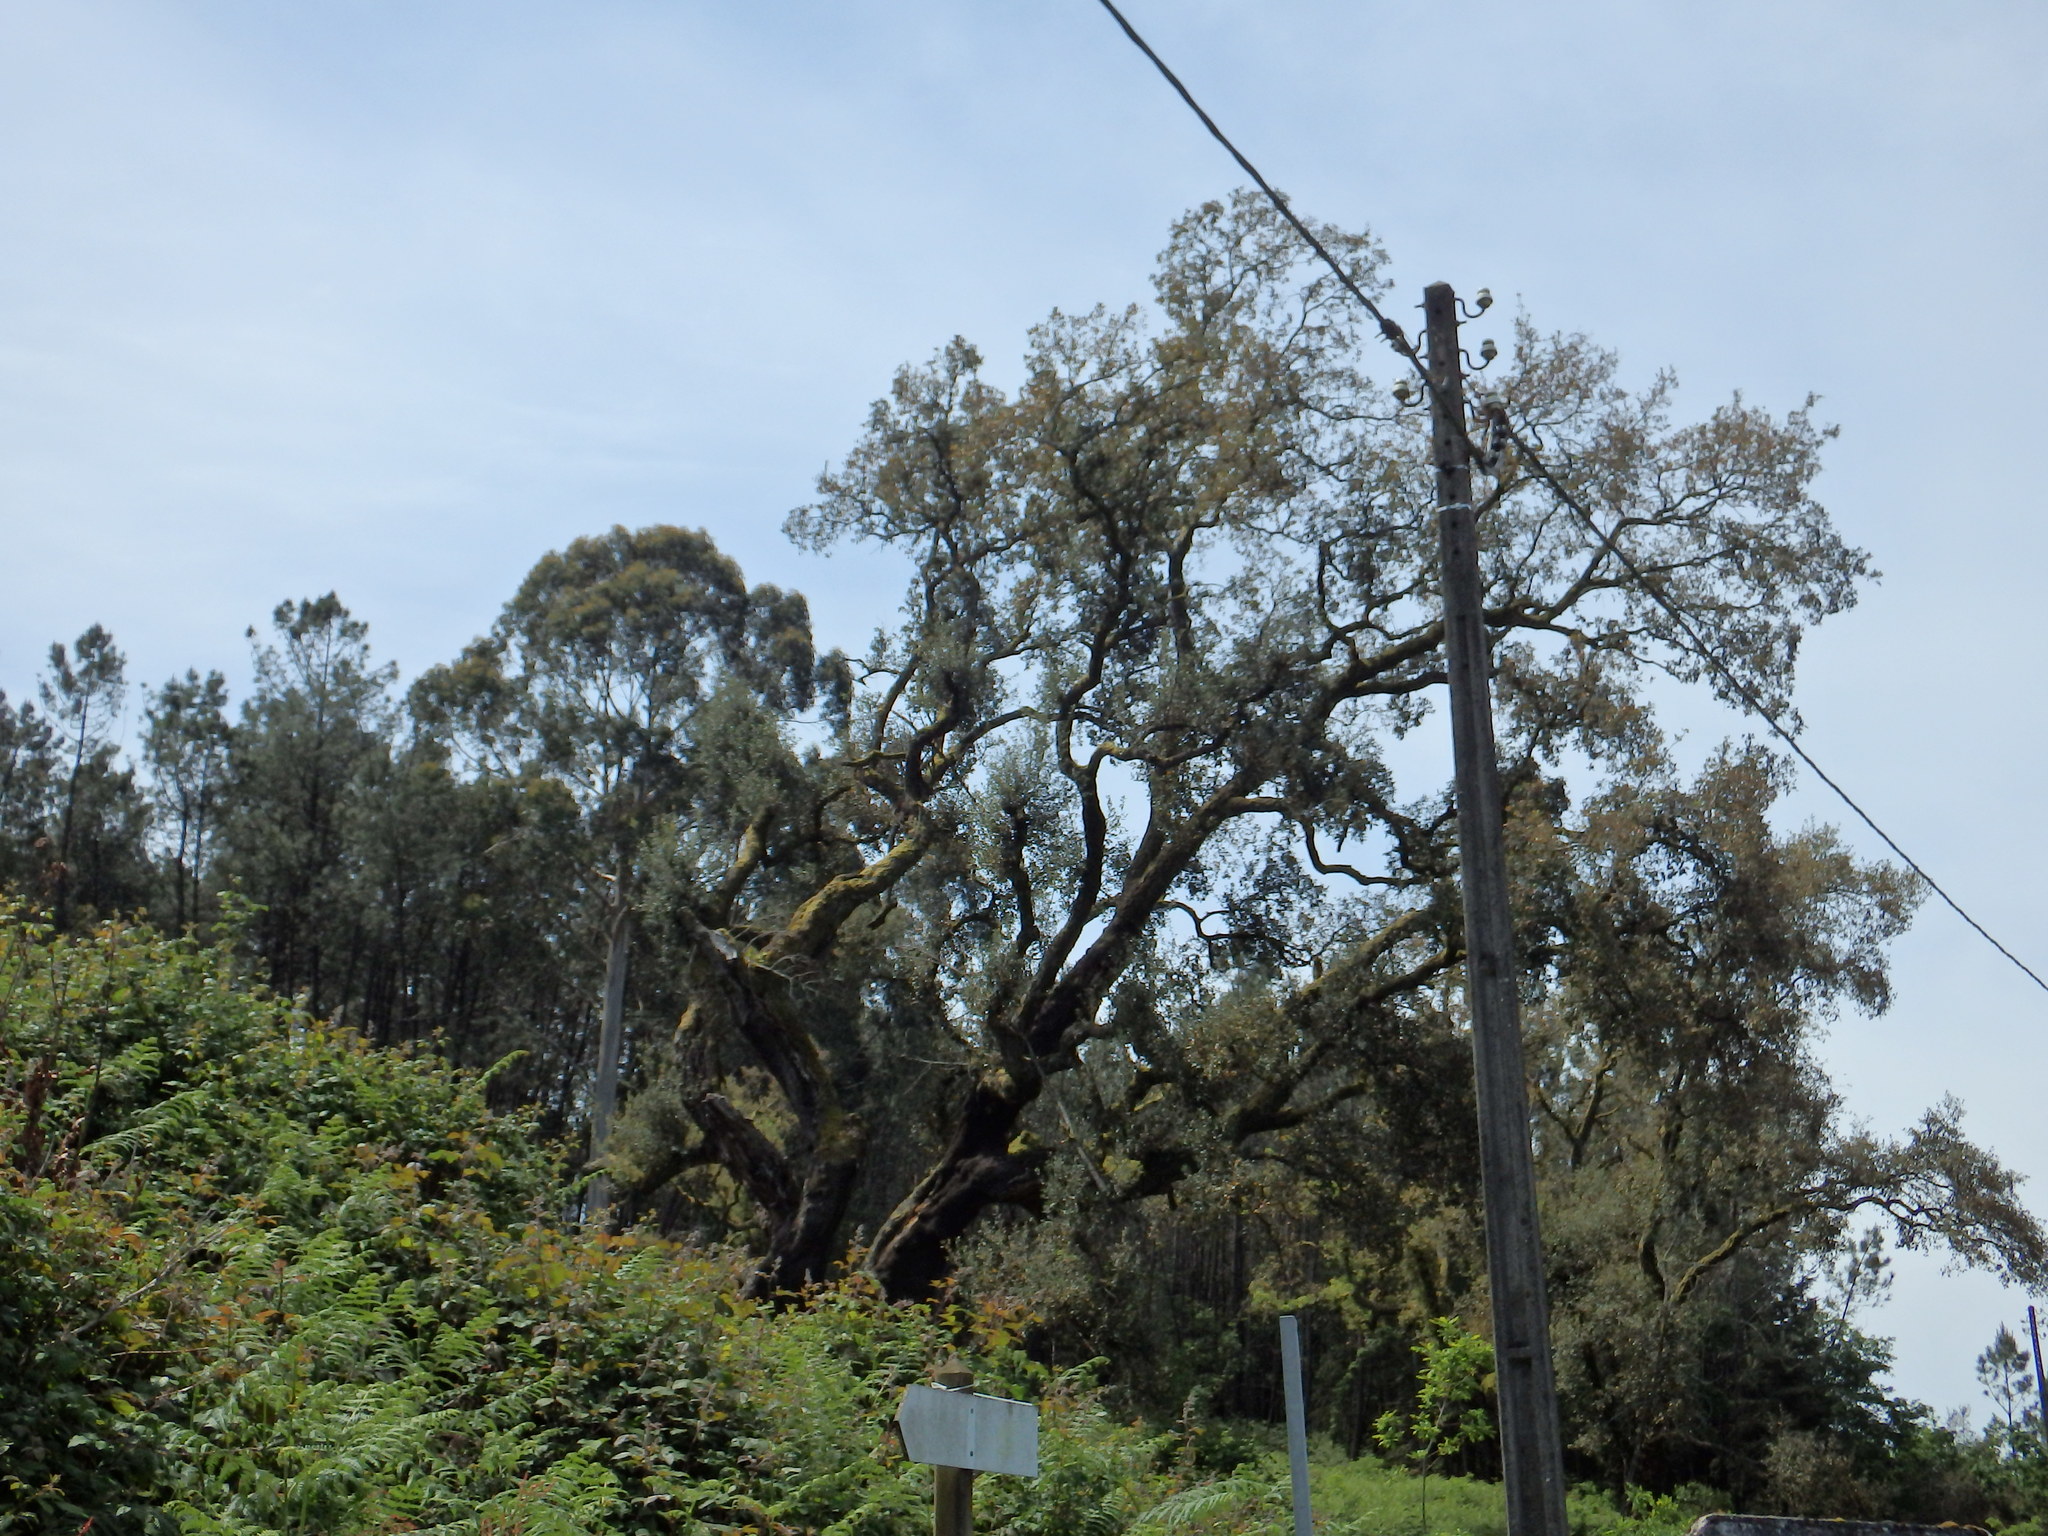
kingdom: Plantae
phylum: Tracheophyta
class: Magnoliopsida
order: Fagales
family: Fagaceae
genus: Quercus
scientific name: Quercus suber
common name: Cork oak
